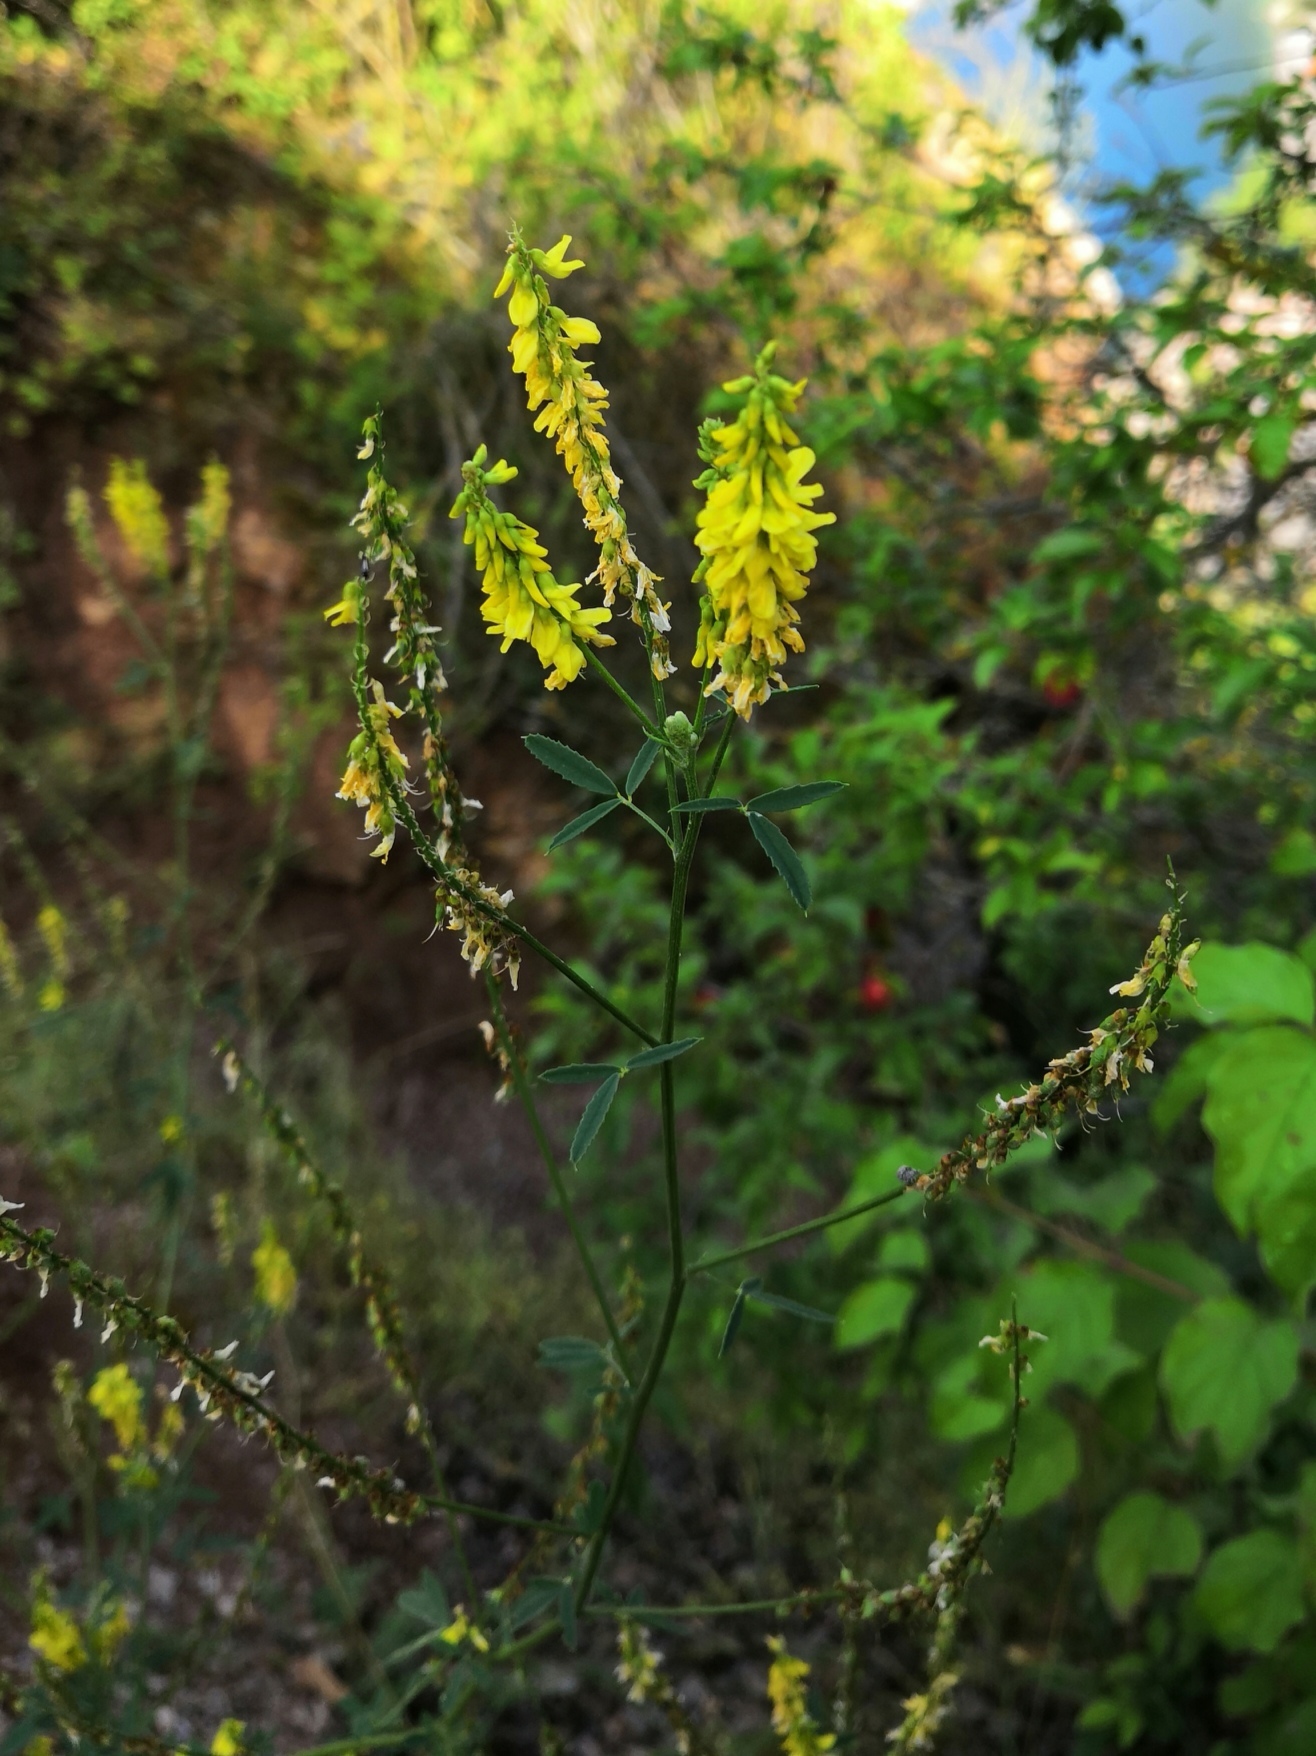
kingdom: Plantae
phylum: Tracheophyta
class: Magnoliopsida
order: Fabales
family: Fabaceae
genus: Melilotus
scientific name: Melilotus officinalis
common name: Sweetclover
